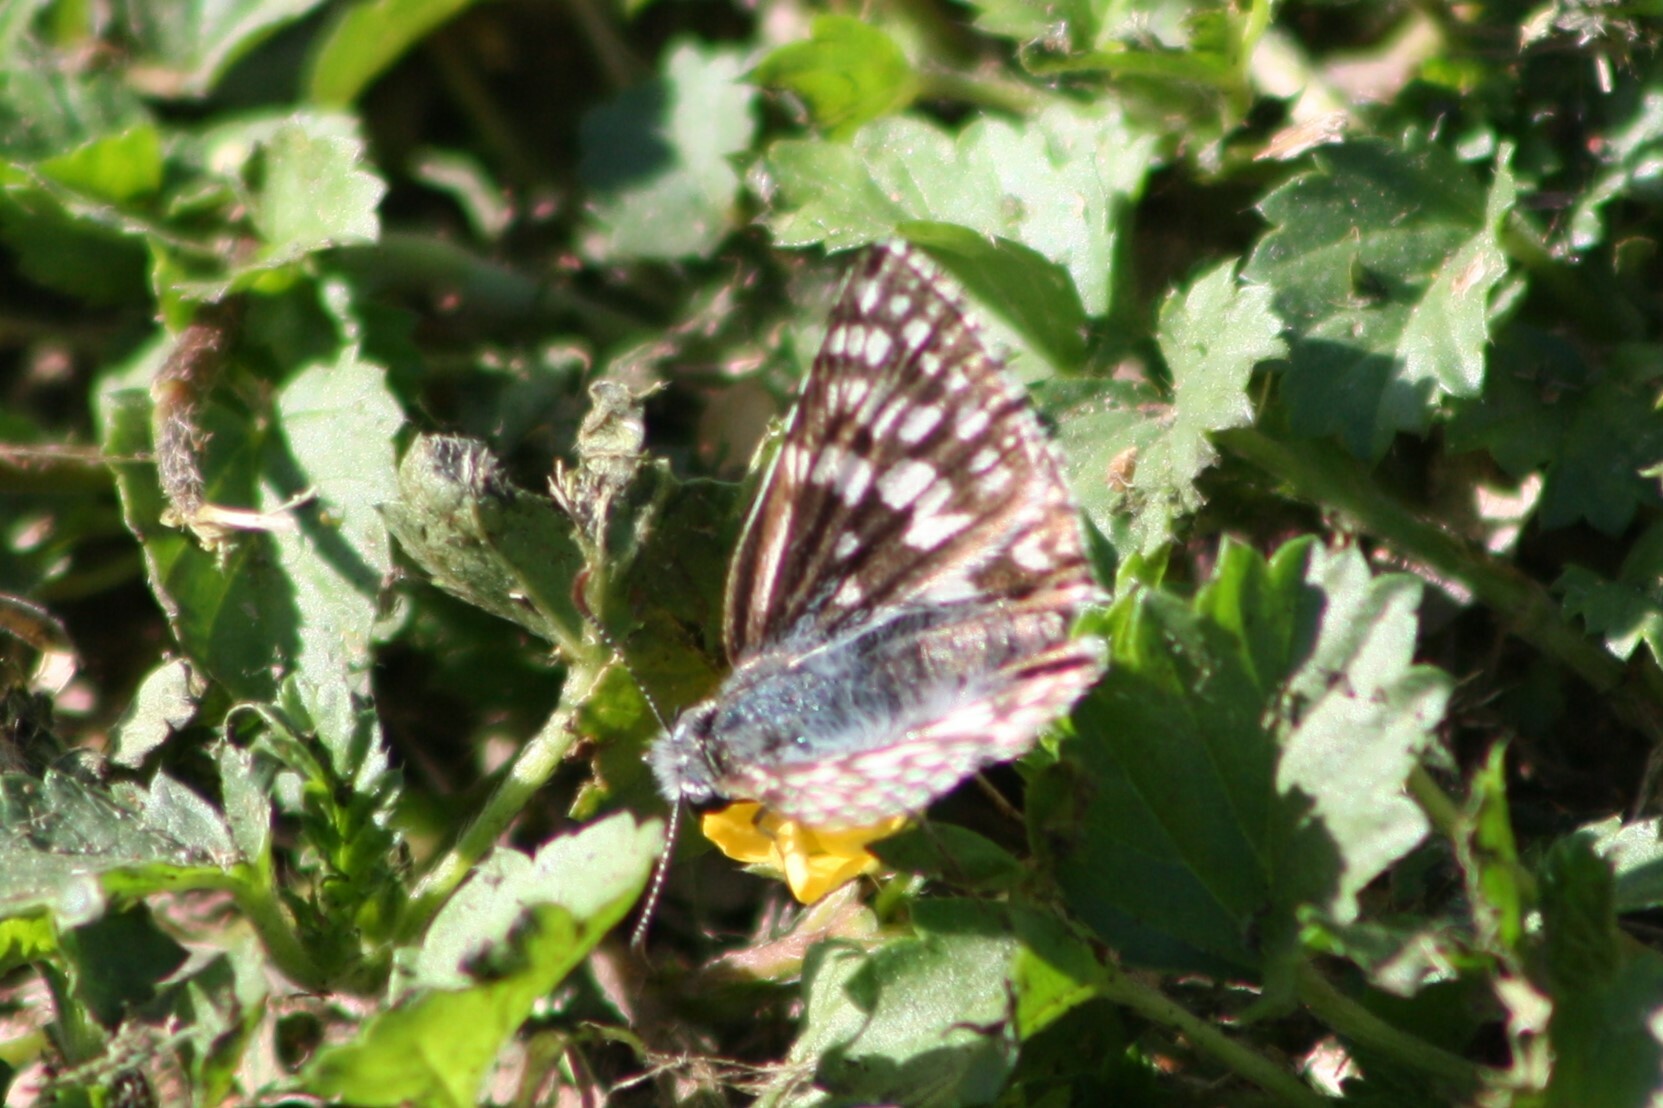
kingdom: Animalia
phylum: Arthropoda
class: Insecta
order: Lepidoptera
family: Hesperiidae
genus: Burnsius
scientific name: Burnsius albezens
